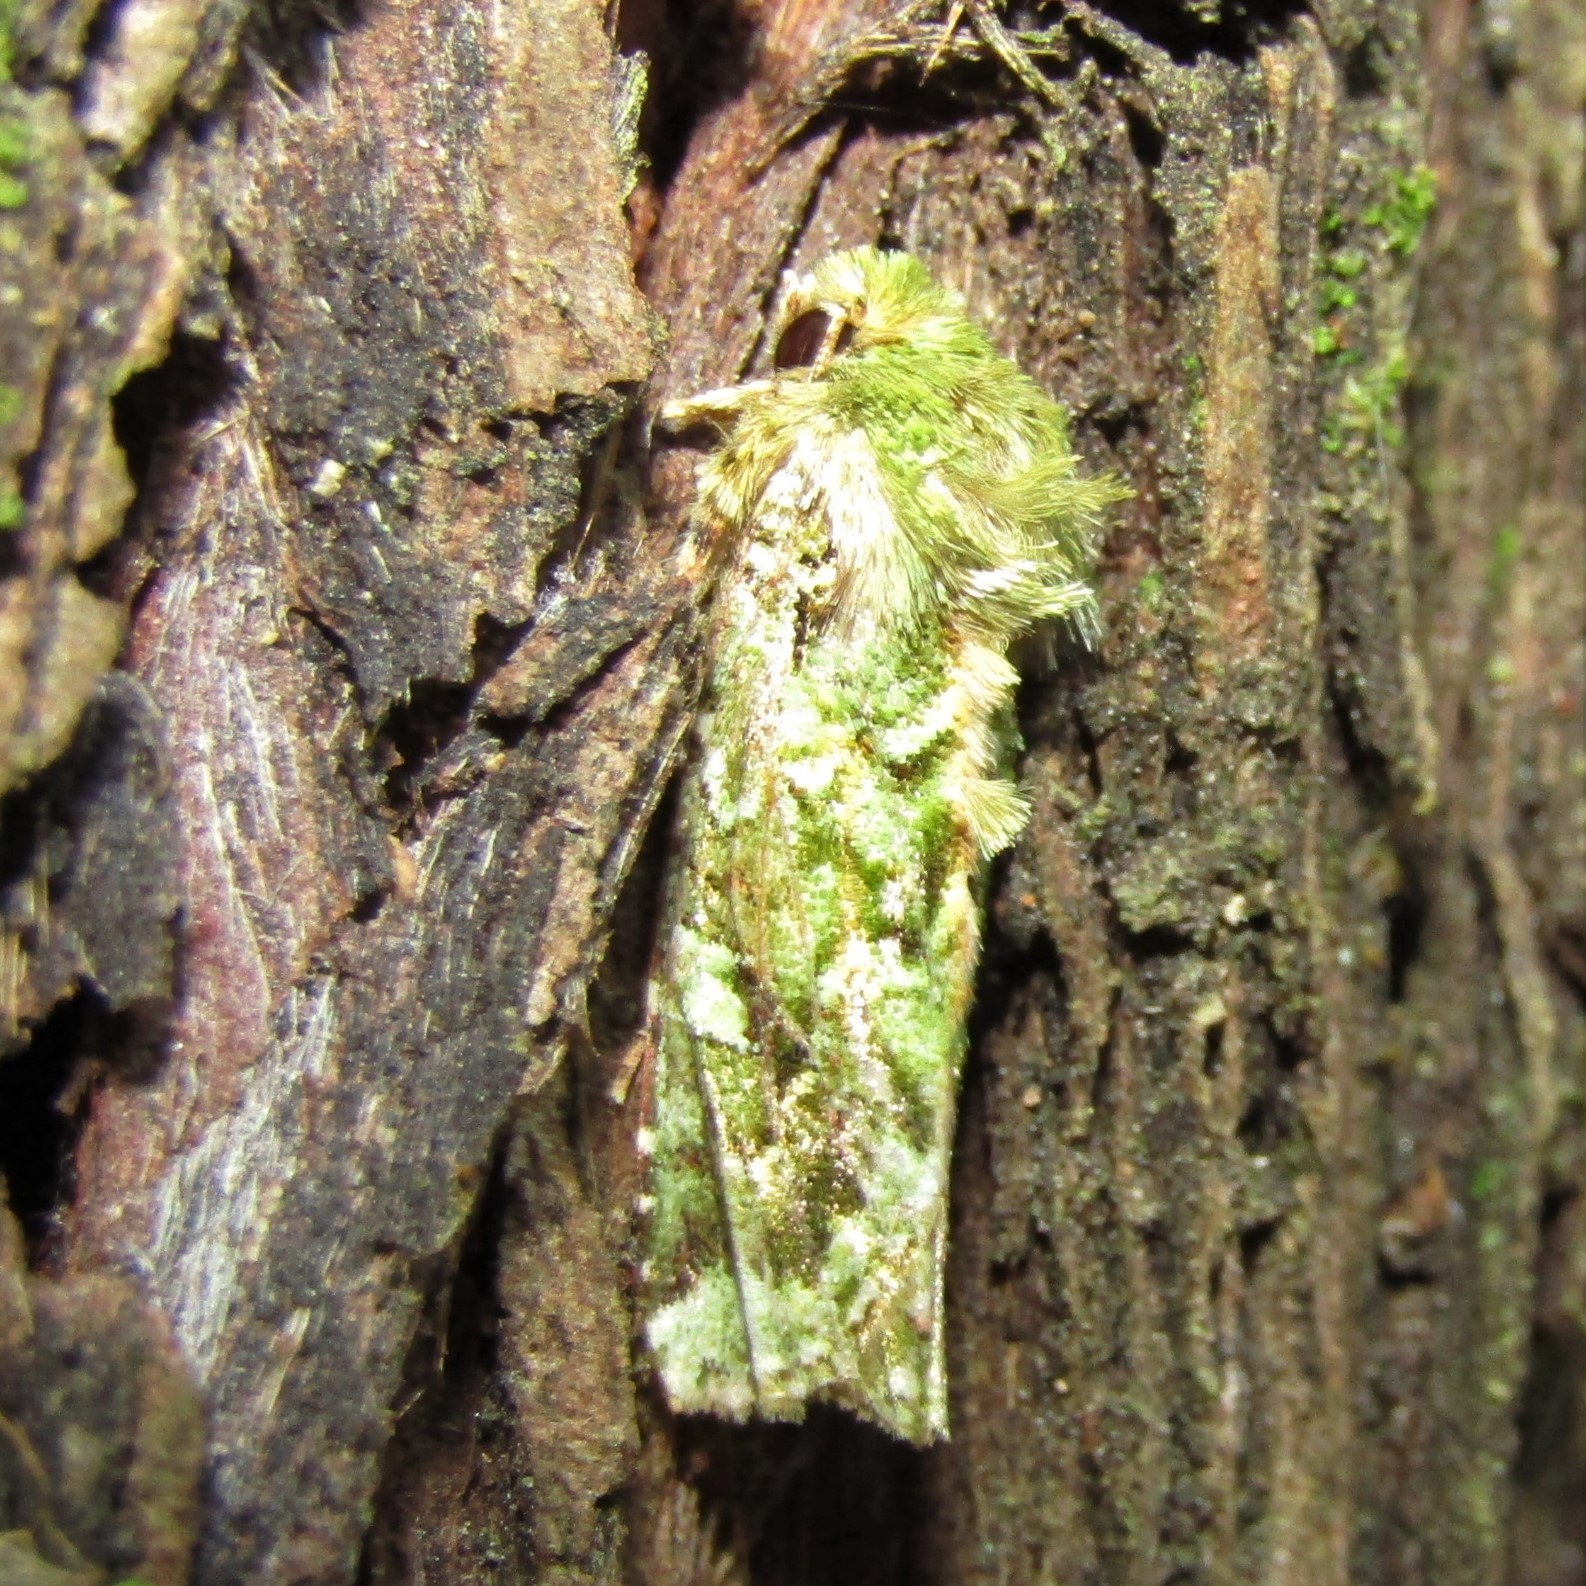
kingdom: Animalia
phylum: Arthropoda
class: Insecta
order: Lepidoptera
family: Noctuidae
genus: Feredayia
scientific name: Feredayia grammosa
